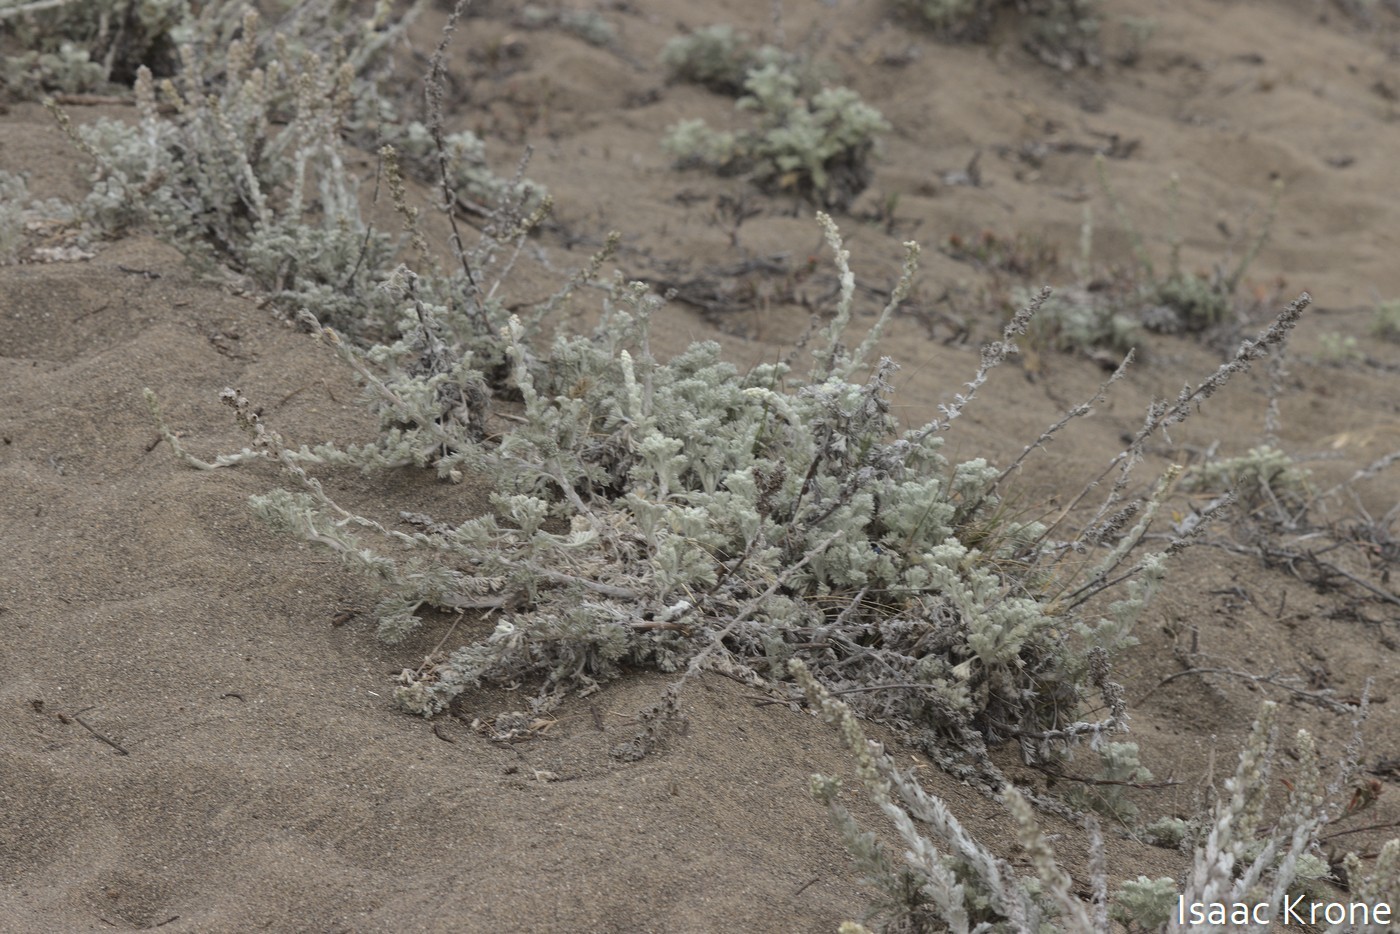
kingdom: Plantae
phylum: Tracheophyta
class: Magnoliopsida
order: Asterales
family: Asteraceae
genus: Artemisia
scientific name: Artemisia pycnocephala
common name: Coastal sagewort
